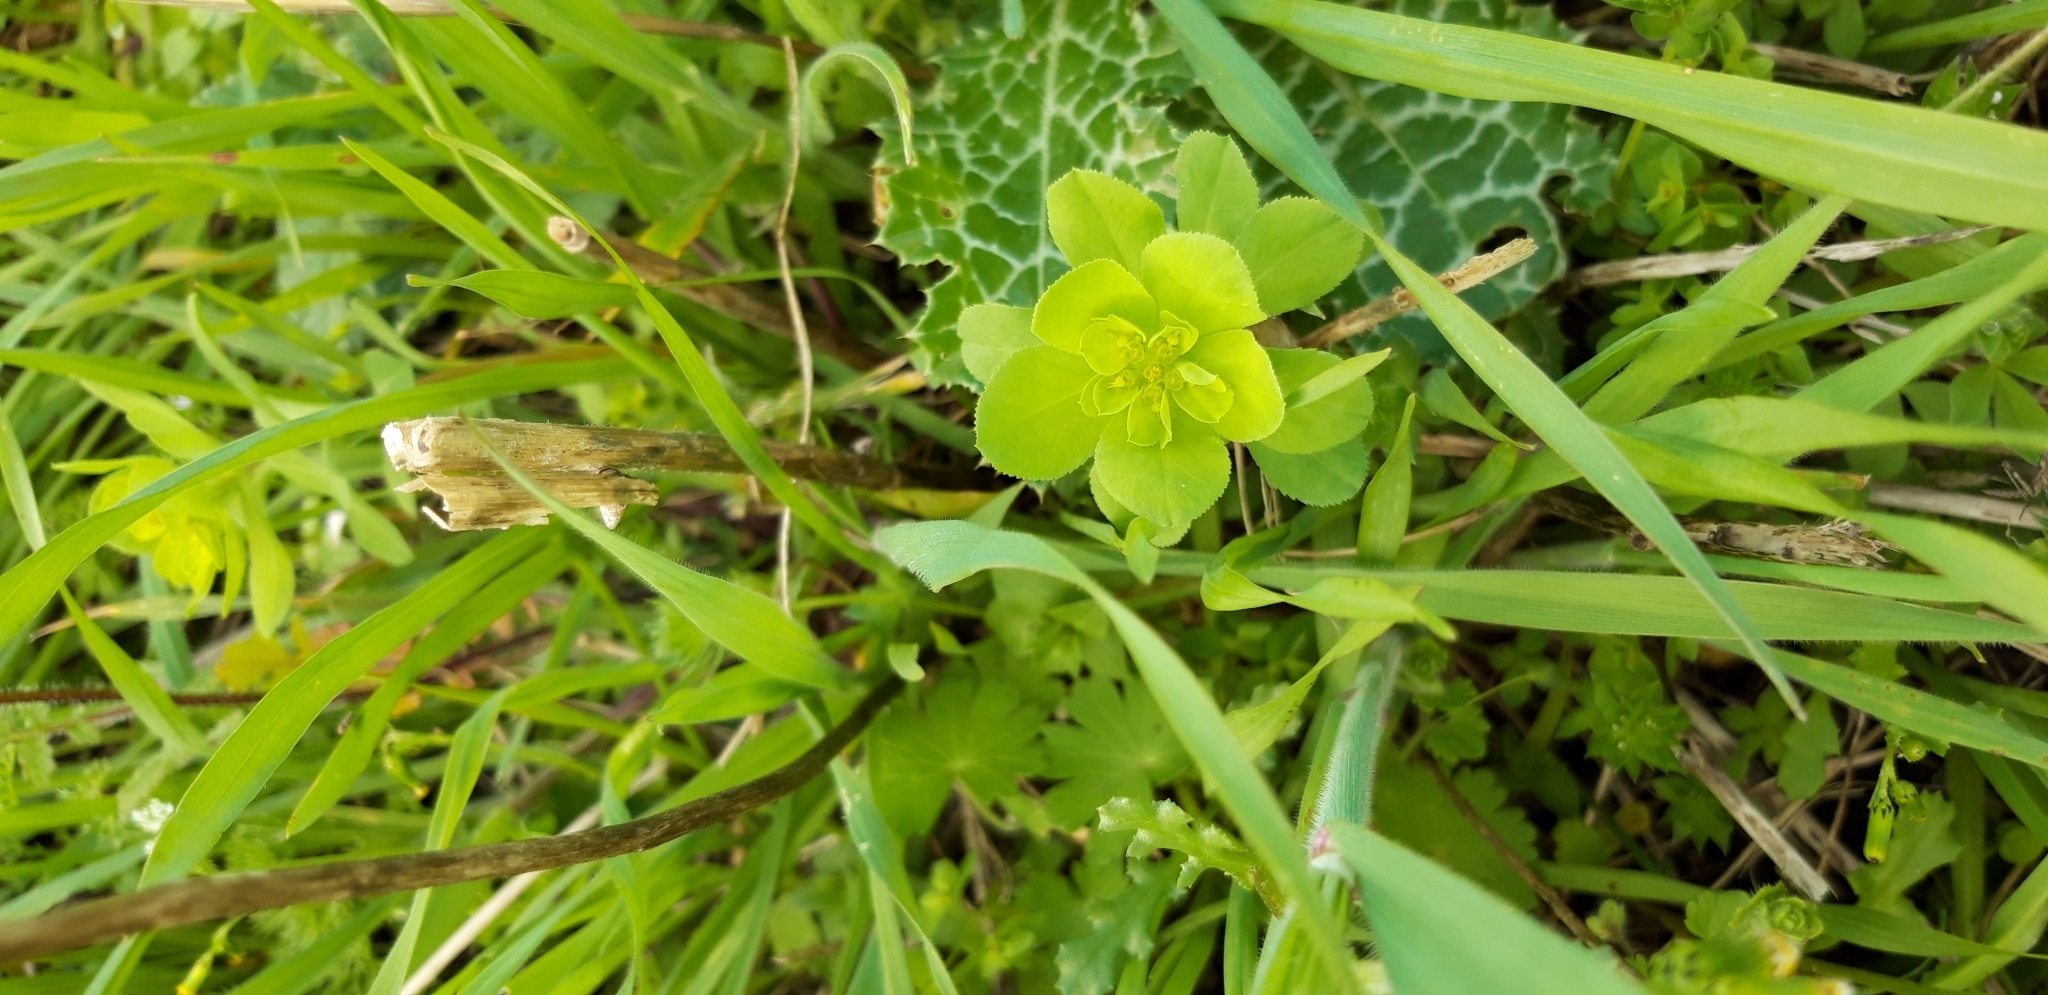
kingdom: Plantae
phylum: Tracheophyta
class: Magnoliopsida
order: Malpighiales
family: Euphorbiaceae
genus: Euphorbia
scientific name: Euphorbia helioscopia
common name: Sun spurge
